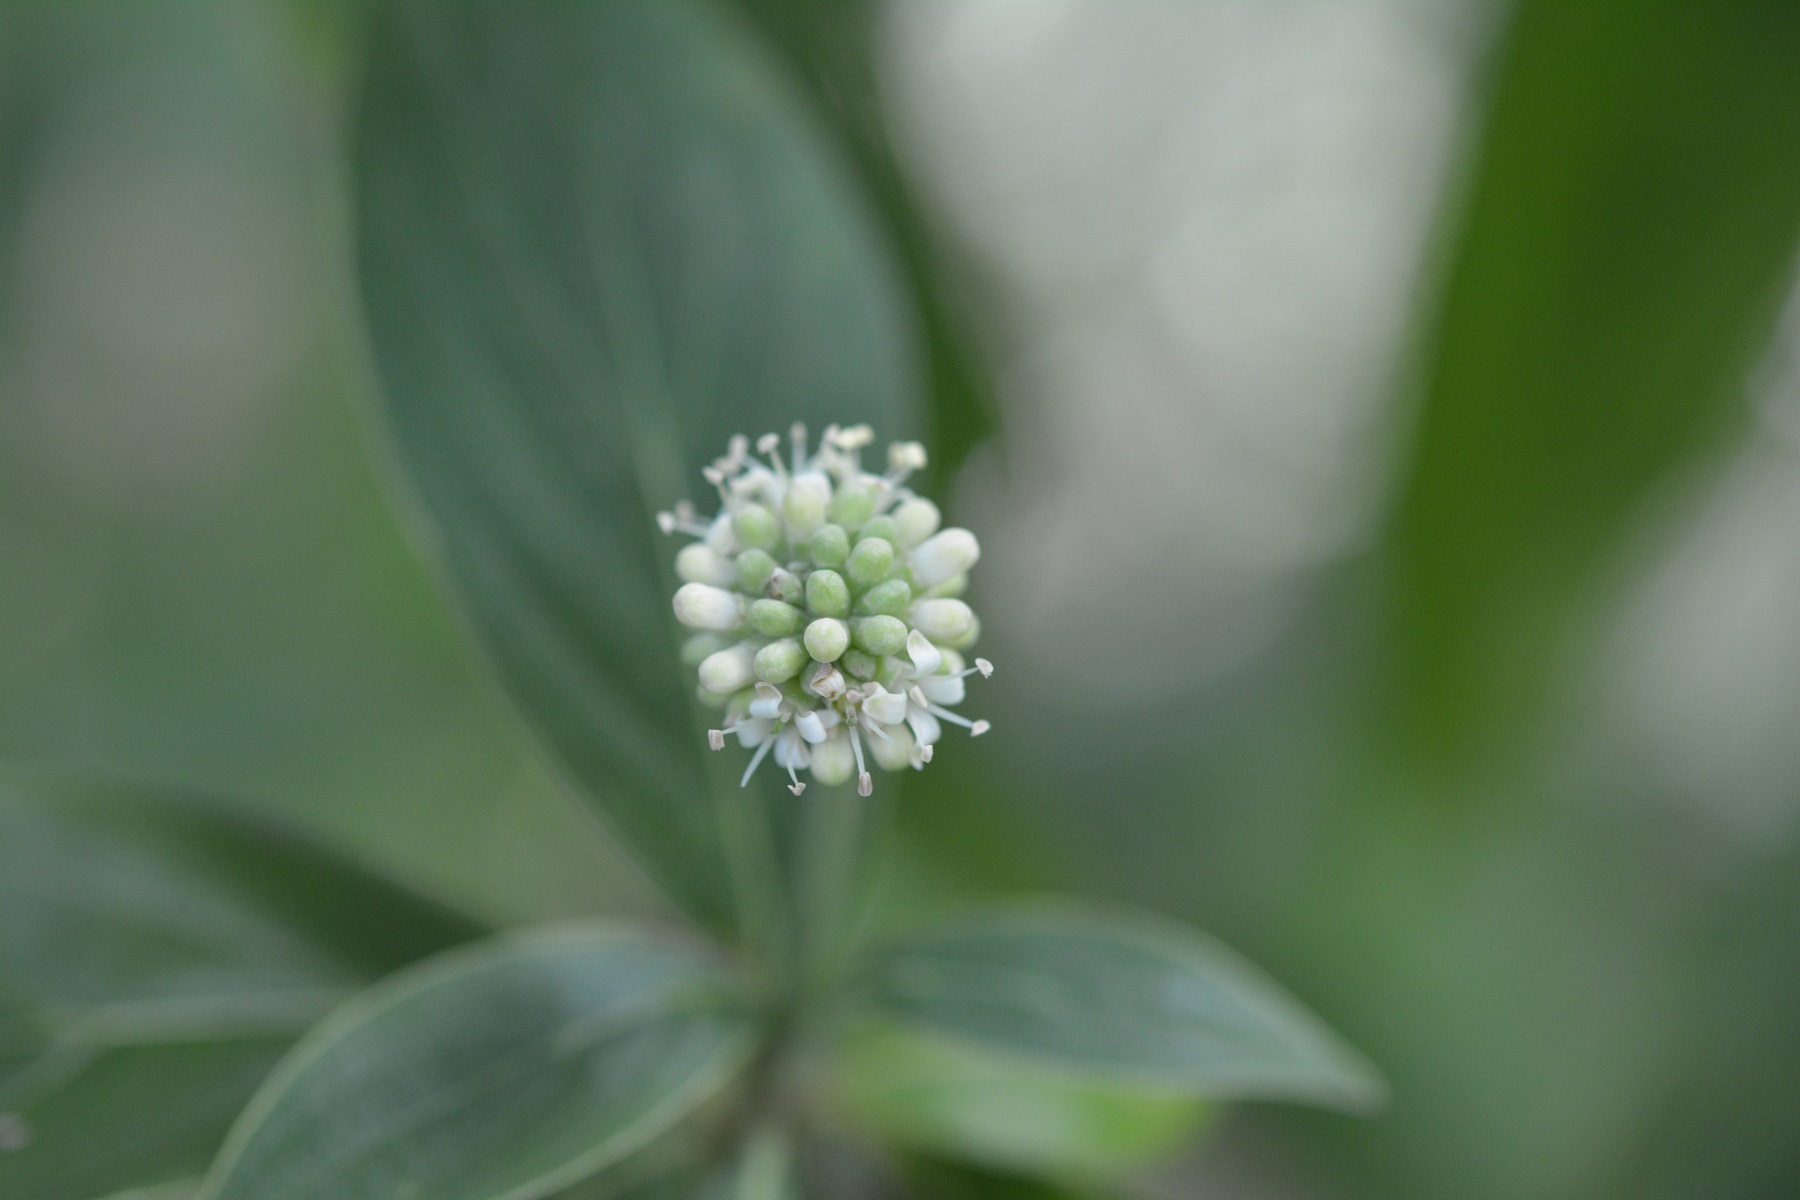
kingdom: Plantae
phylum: Tracheophyta
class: Magnoliopsida
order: Cornales
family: Cornaceae
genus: Cornus
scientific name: Cornus disciflora
